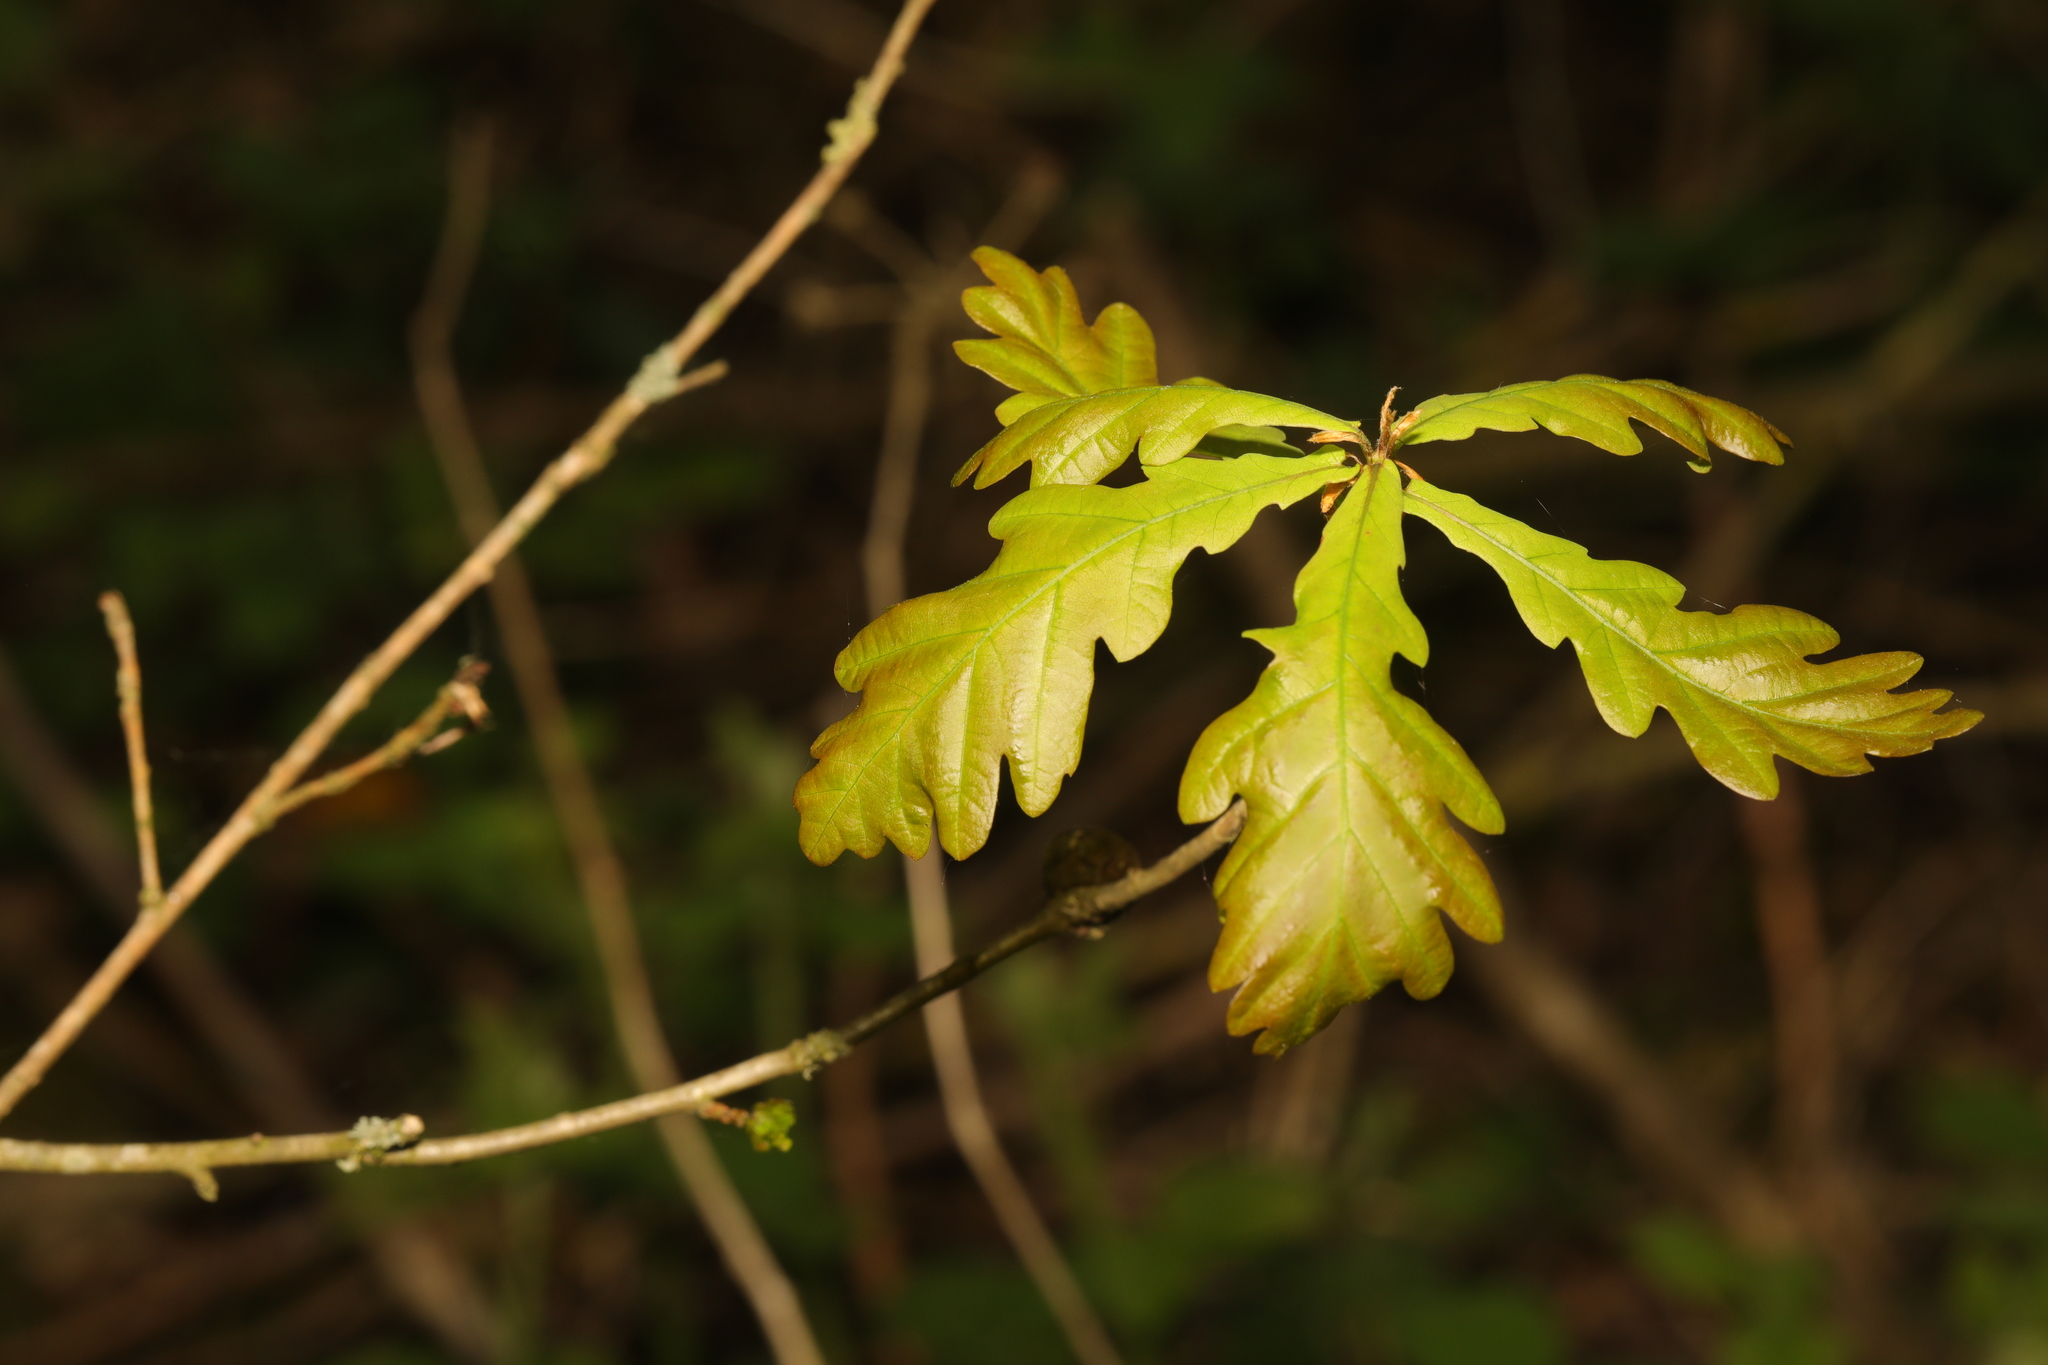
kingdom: Plantae
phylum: Tracheophyta
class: Magnoliopsida
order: Fagales
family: Fagaceae
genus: Quercus
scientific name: Quercus robur
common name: Pedunculate oak
